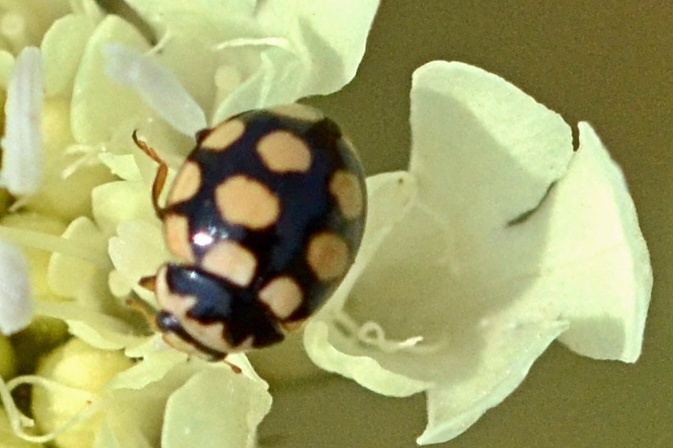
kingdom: Animalia
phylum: Arthropoda
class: Insecta
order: Coleoptera
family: Coccinellidae
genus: Coccinula
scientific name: Coccinula quatuordecimpustulata
